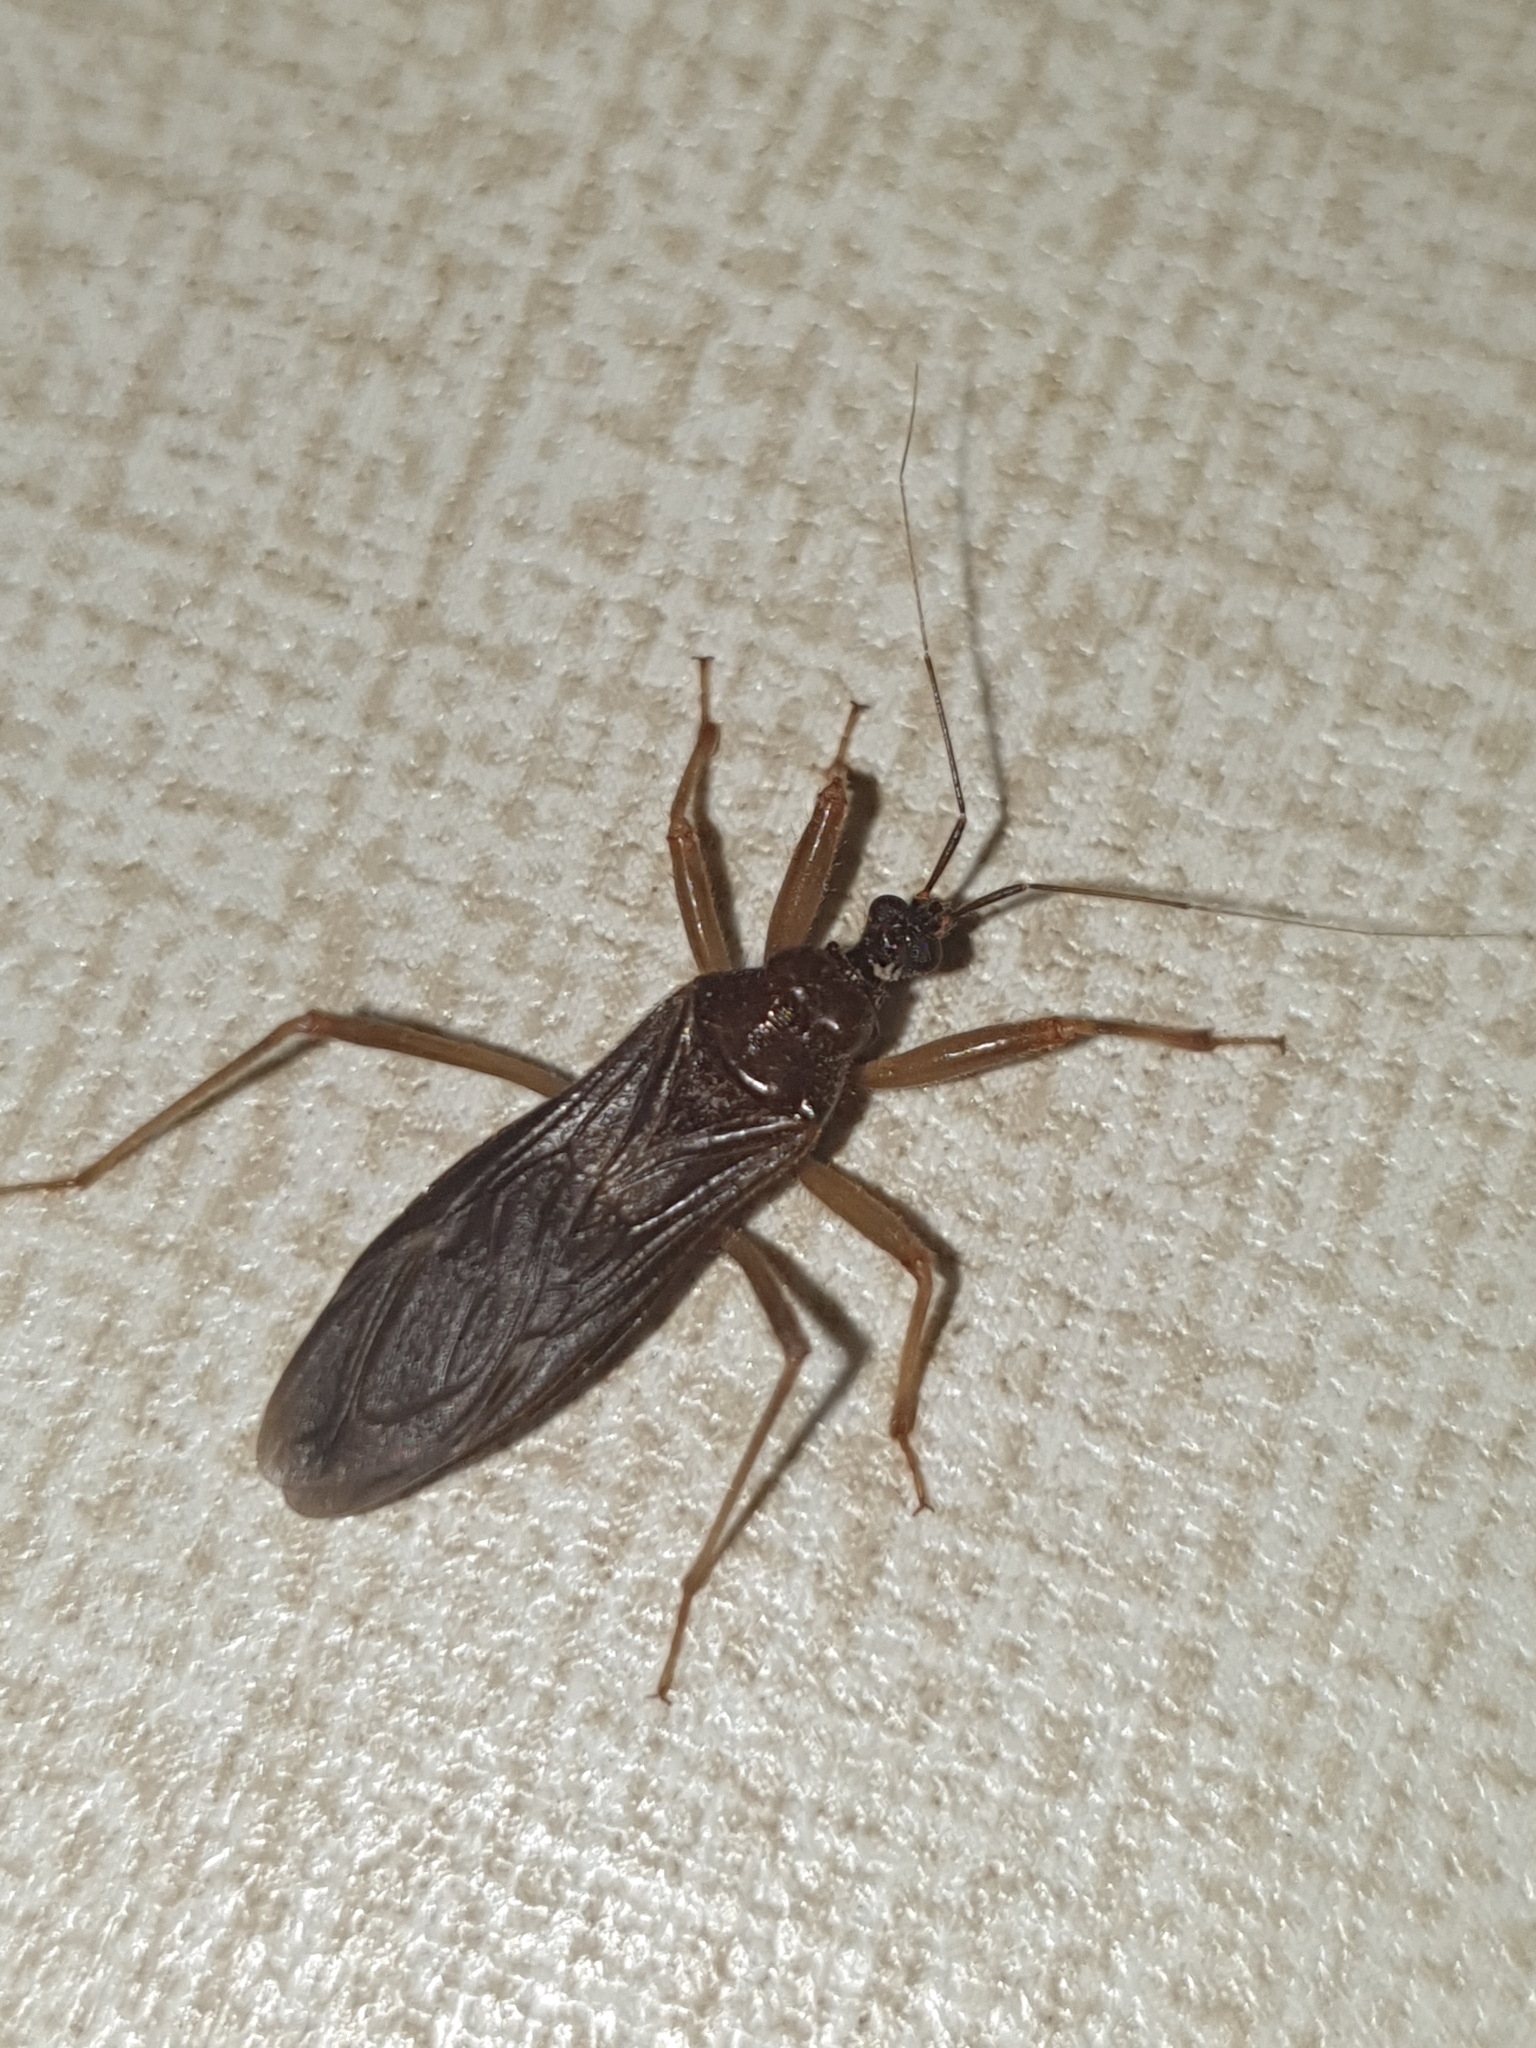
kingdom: Animalia
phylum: Arthropoda
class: Insecta
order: Hemiptera
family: Reduviidae
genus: Reduvius
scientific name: Reduvius personatus
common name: Masked hunter
